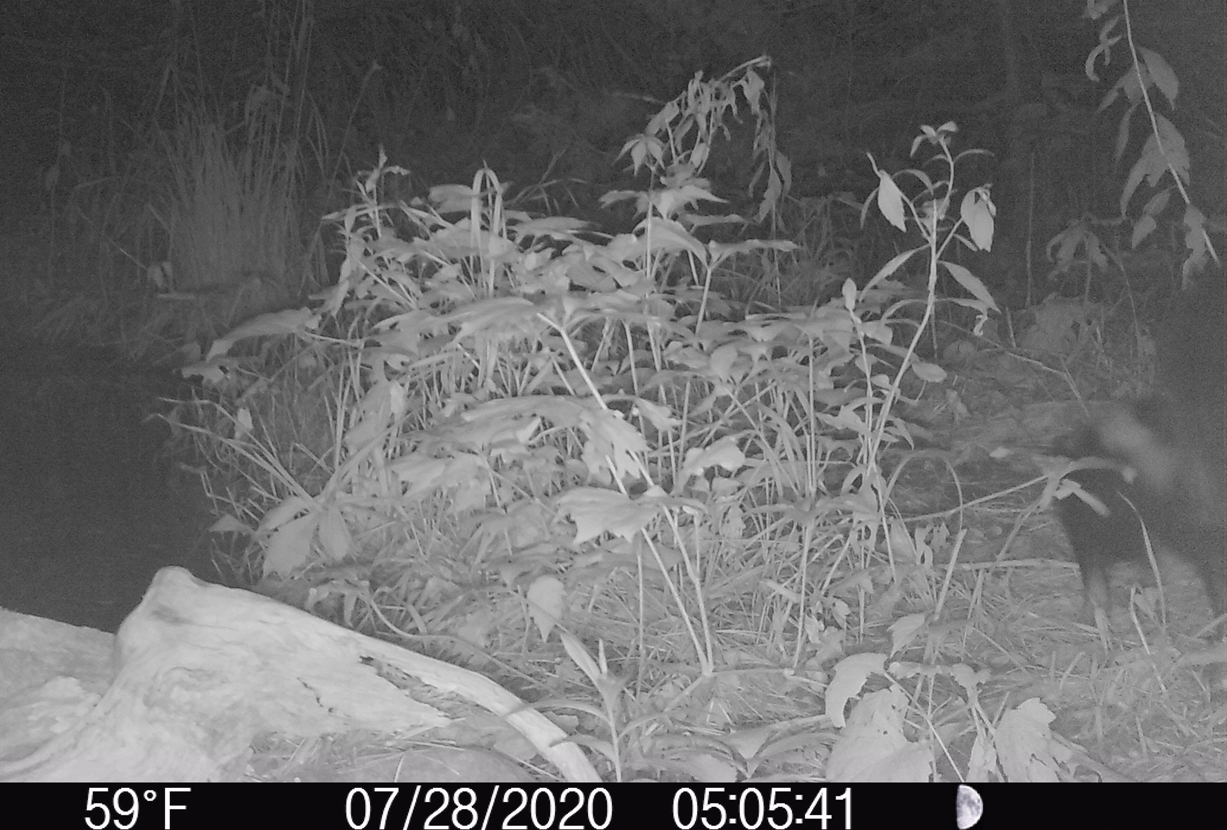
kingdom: Animalia
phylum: Chordata
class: Mammalia
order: Carnivora
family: Mephitidae
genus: Mephitis
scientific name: Mephitis mephitis
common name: Striped skunk
